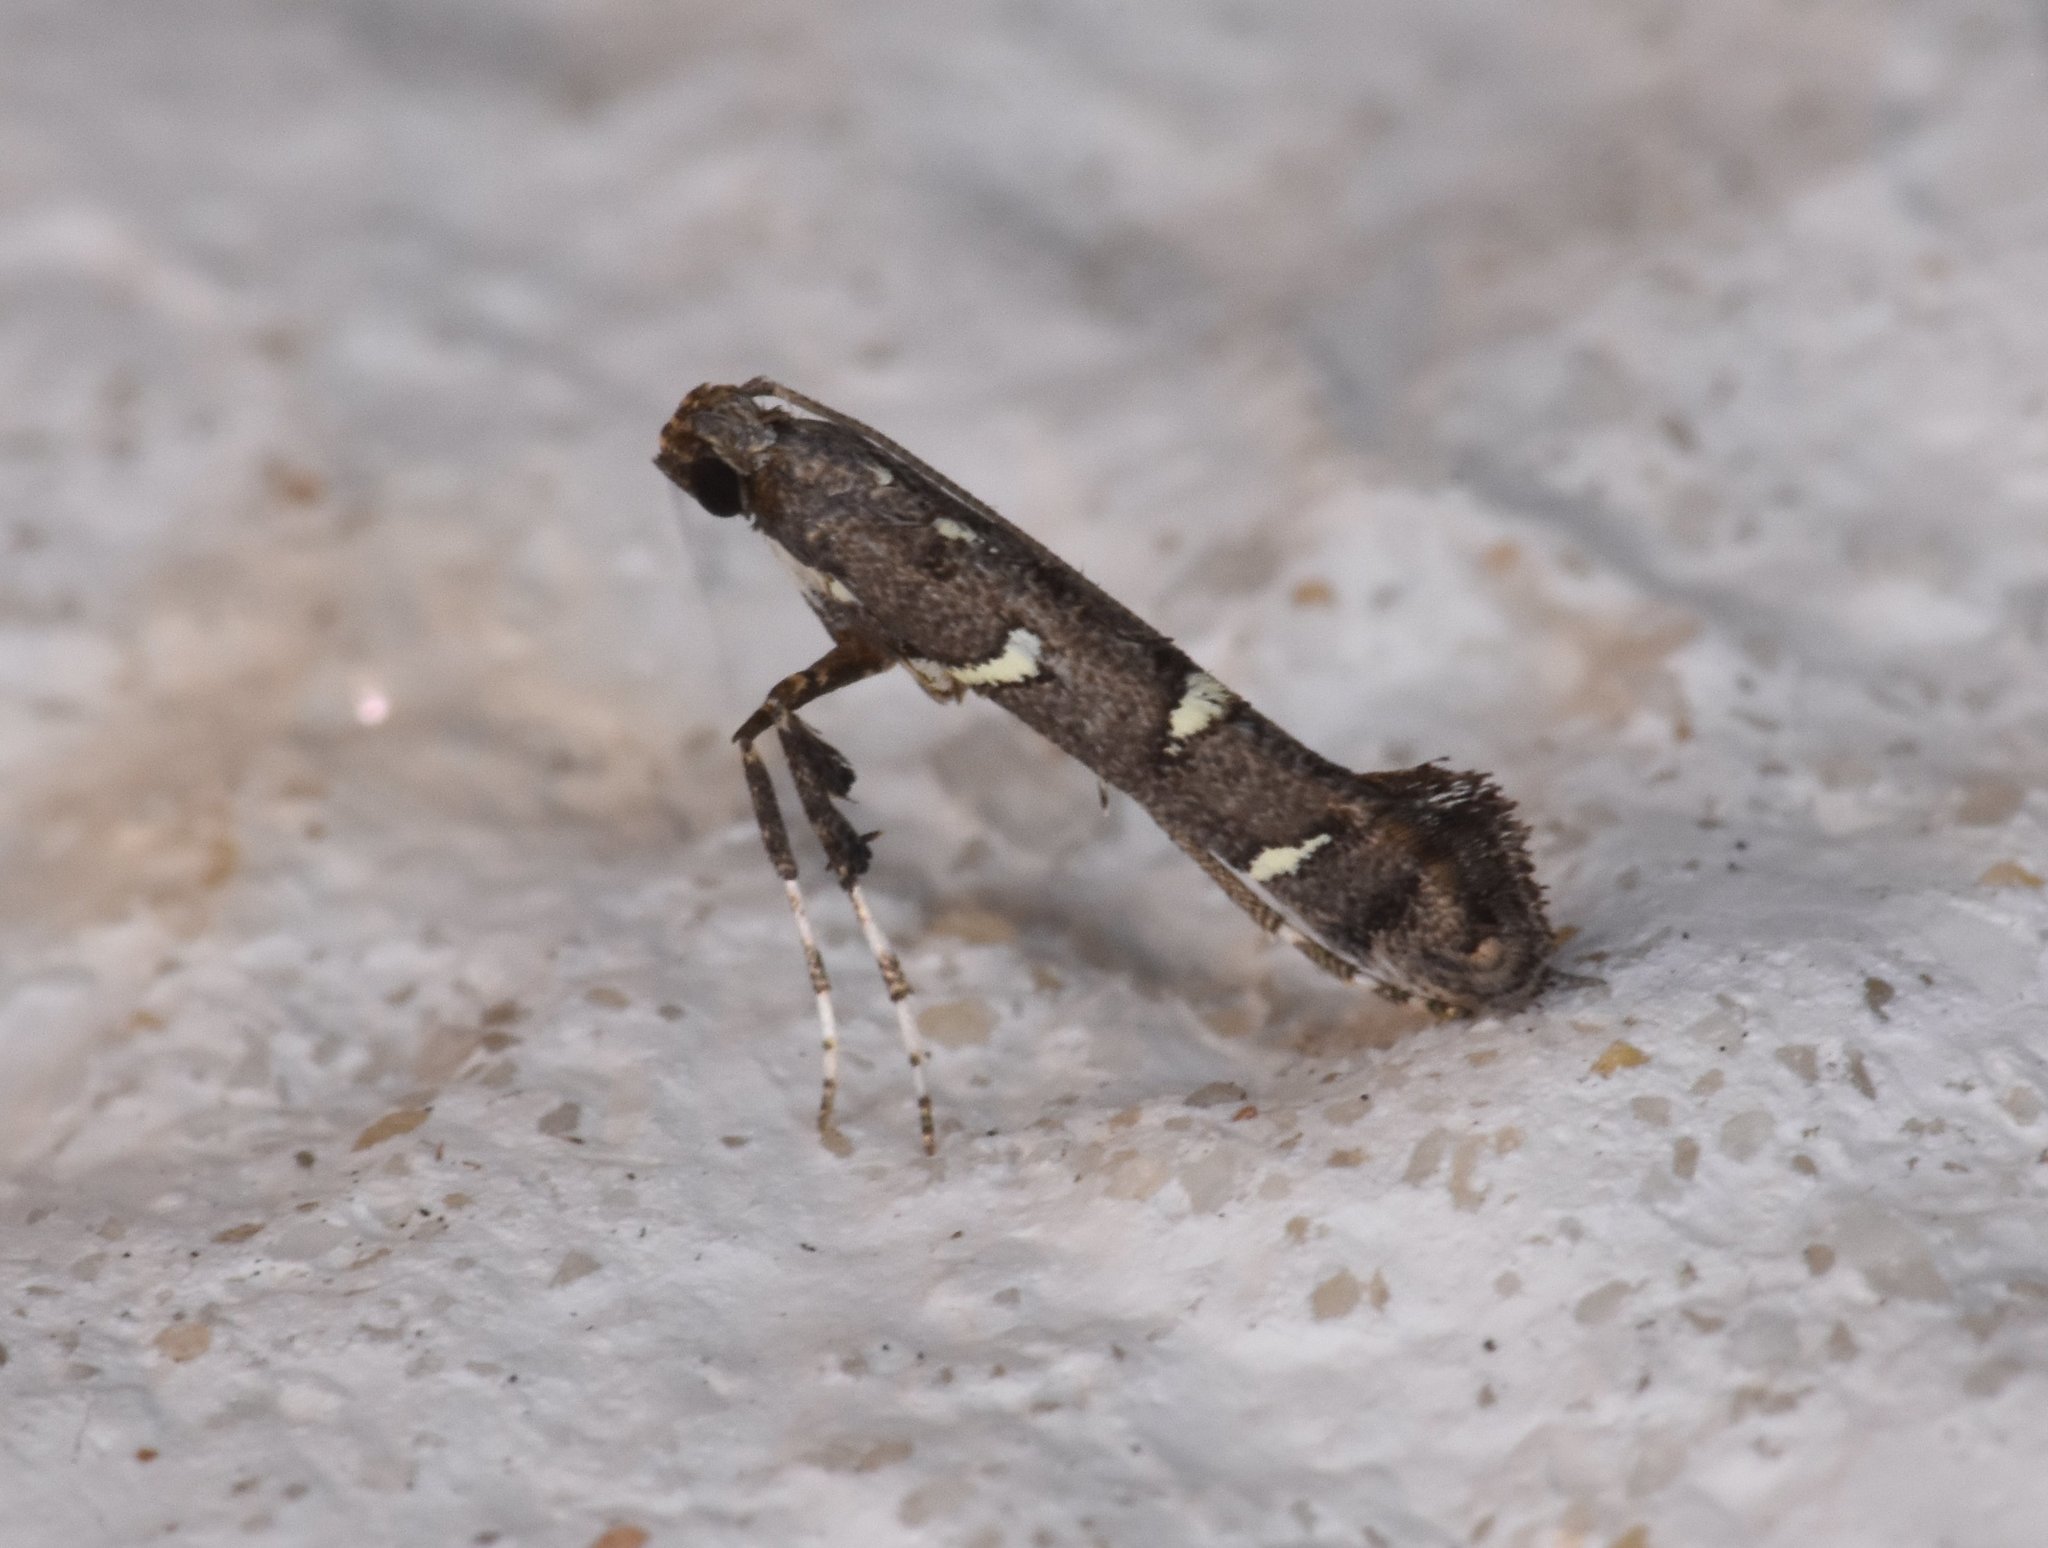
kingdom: Animalia
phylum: Arthropoda
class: Insecta
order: Lepidoptera
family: Gracillariidae
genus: Caloptilia
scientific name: Caloptilia triadicae
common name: Tallow leaf roller
